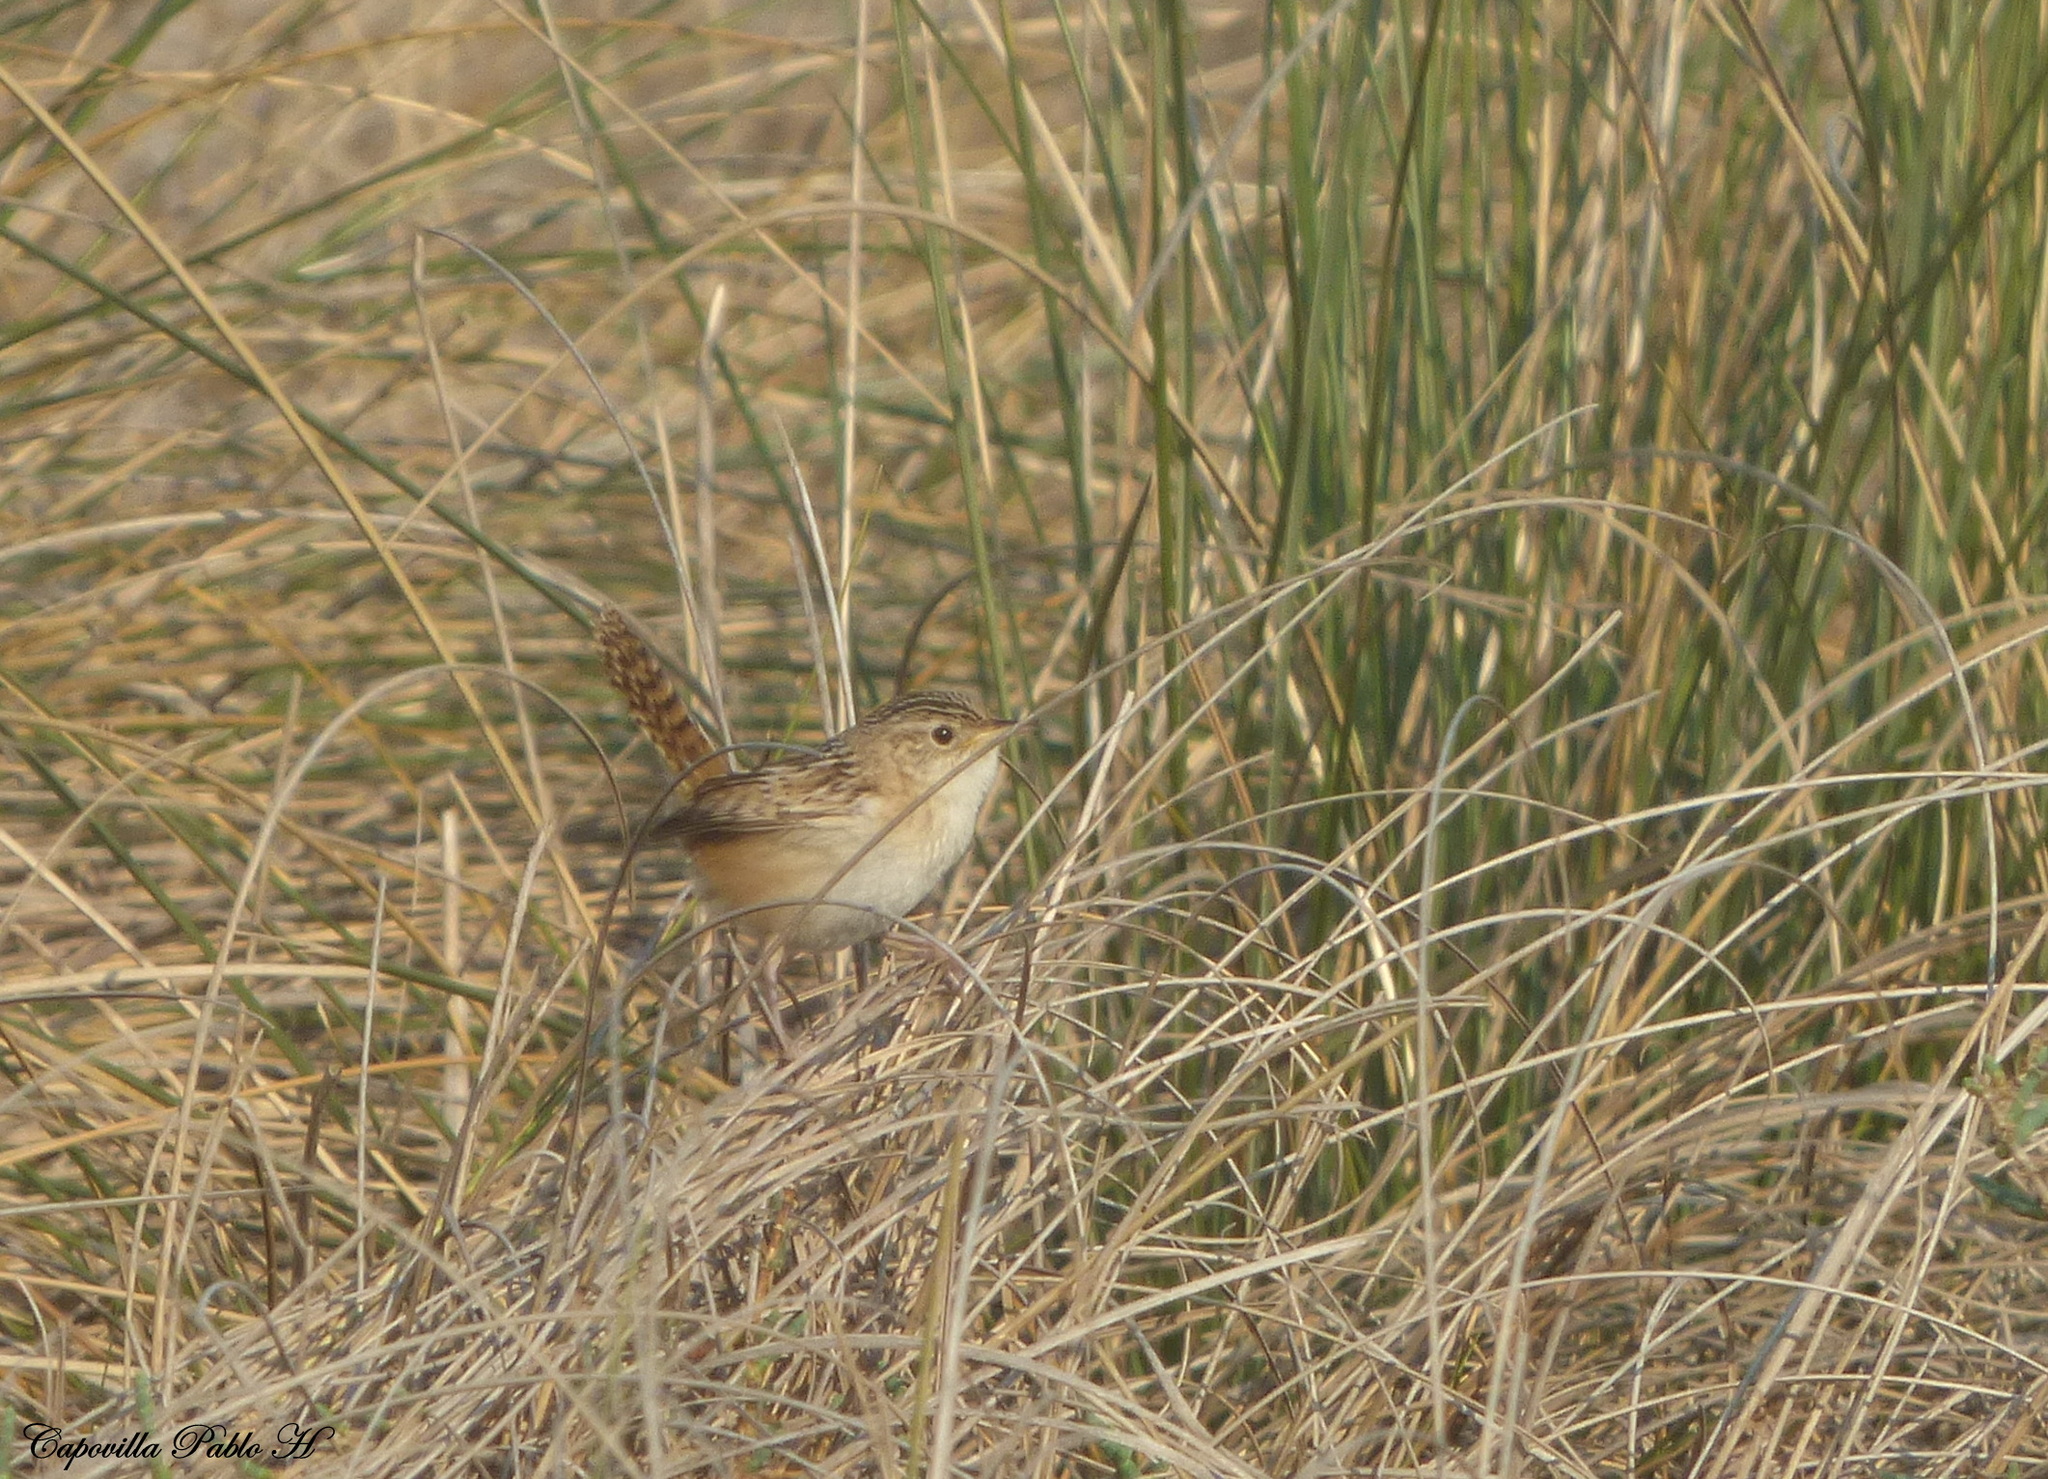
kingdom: Animalia
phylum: Chordata
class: Aves
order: Passeriformes
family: Troglodytidae
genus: Cistothorus
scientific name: Cistothorus platensis
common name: Sedge wren
